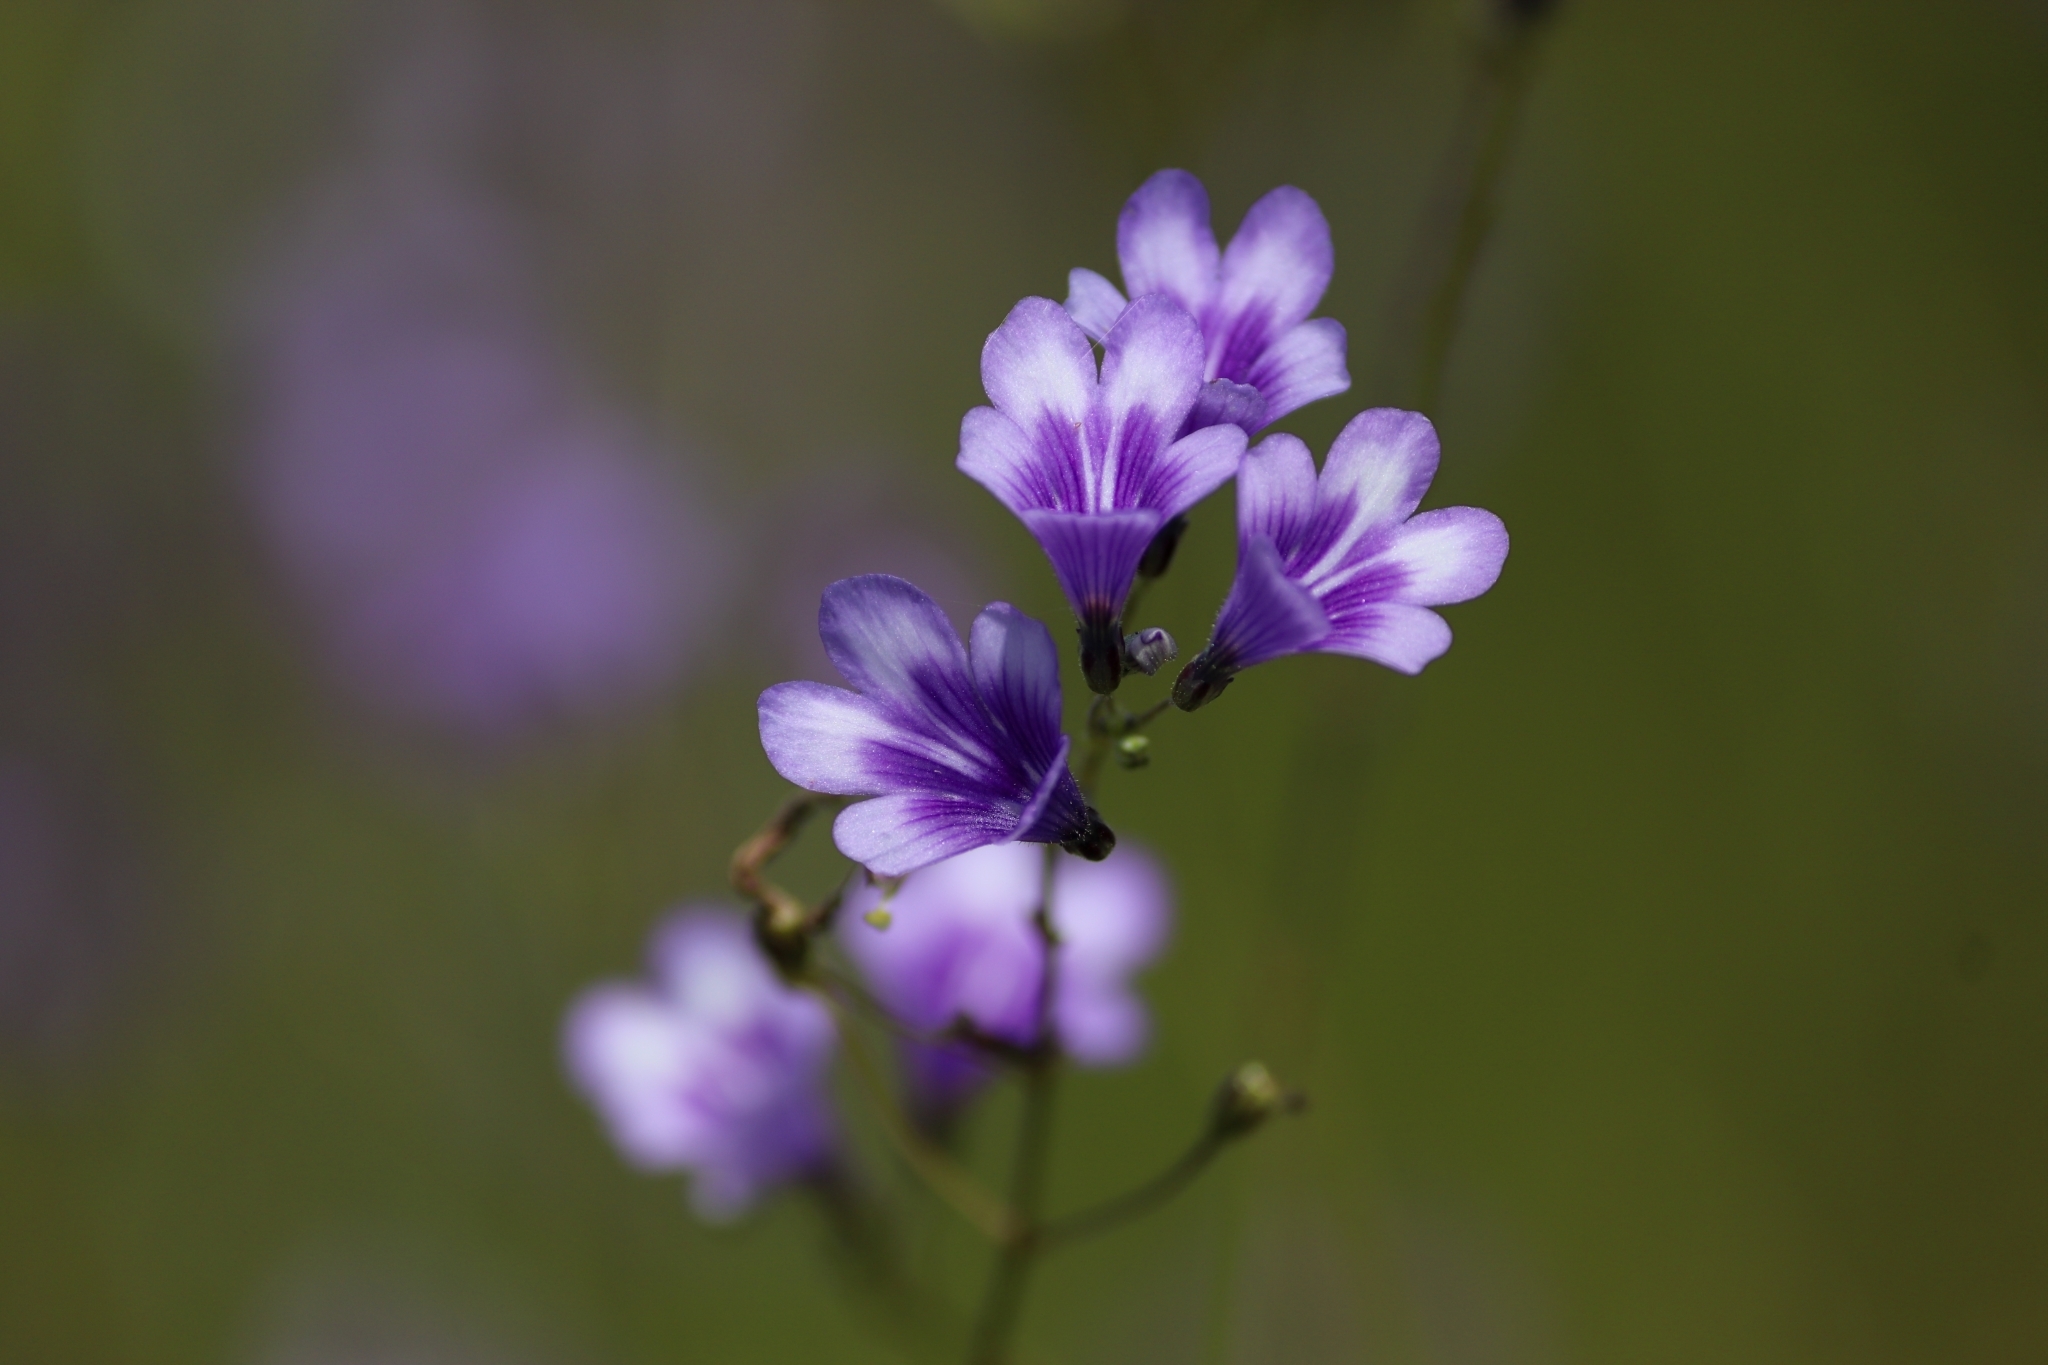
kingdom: Plantae
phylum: Tracheophyta
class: Magnoliopsida
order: Lamiales
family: Plantaginaceae
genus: Dopatrium
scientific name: Dopatrium lobelioides
